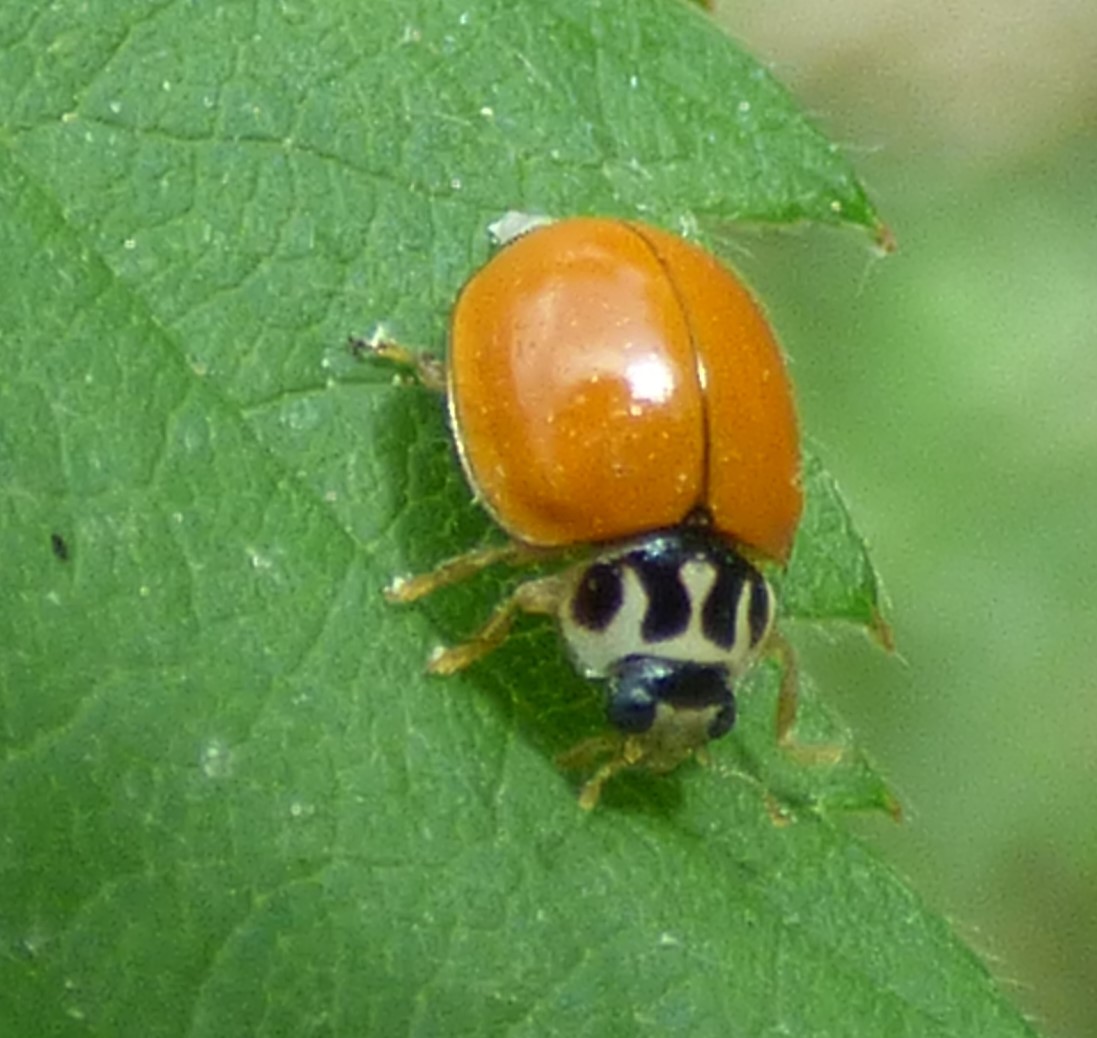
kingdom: Animalia
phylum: Arthropoda
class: Insecta
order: Coleoptera
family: Coccinellidae
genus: Mulsantina
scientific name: Mulsantina luteodorsa
